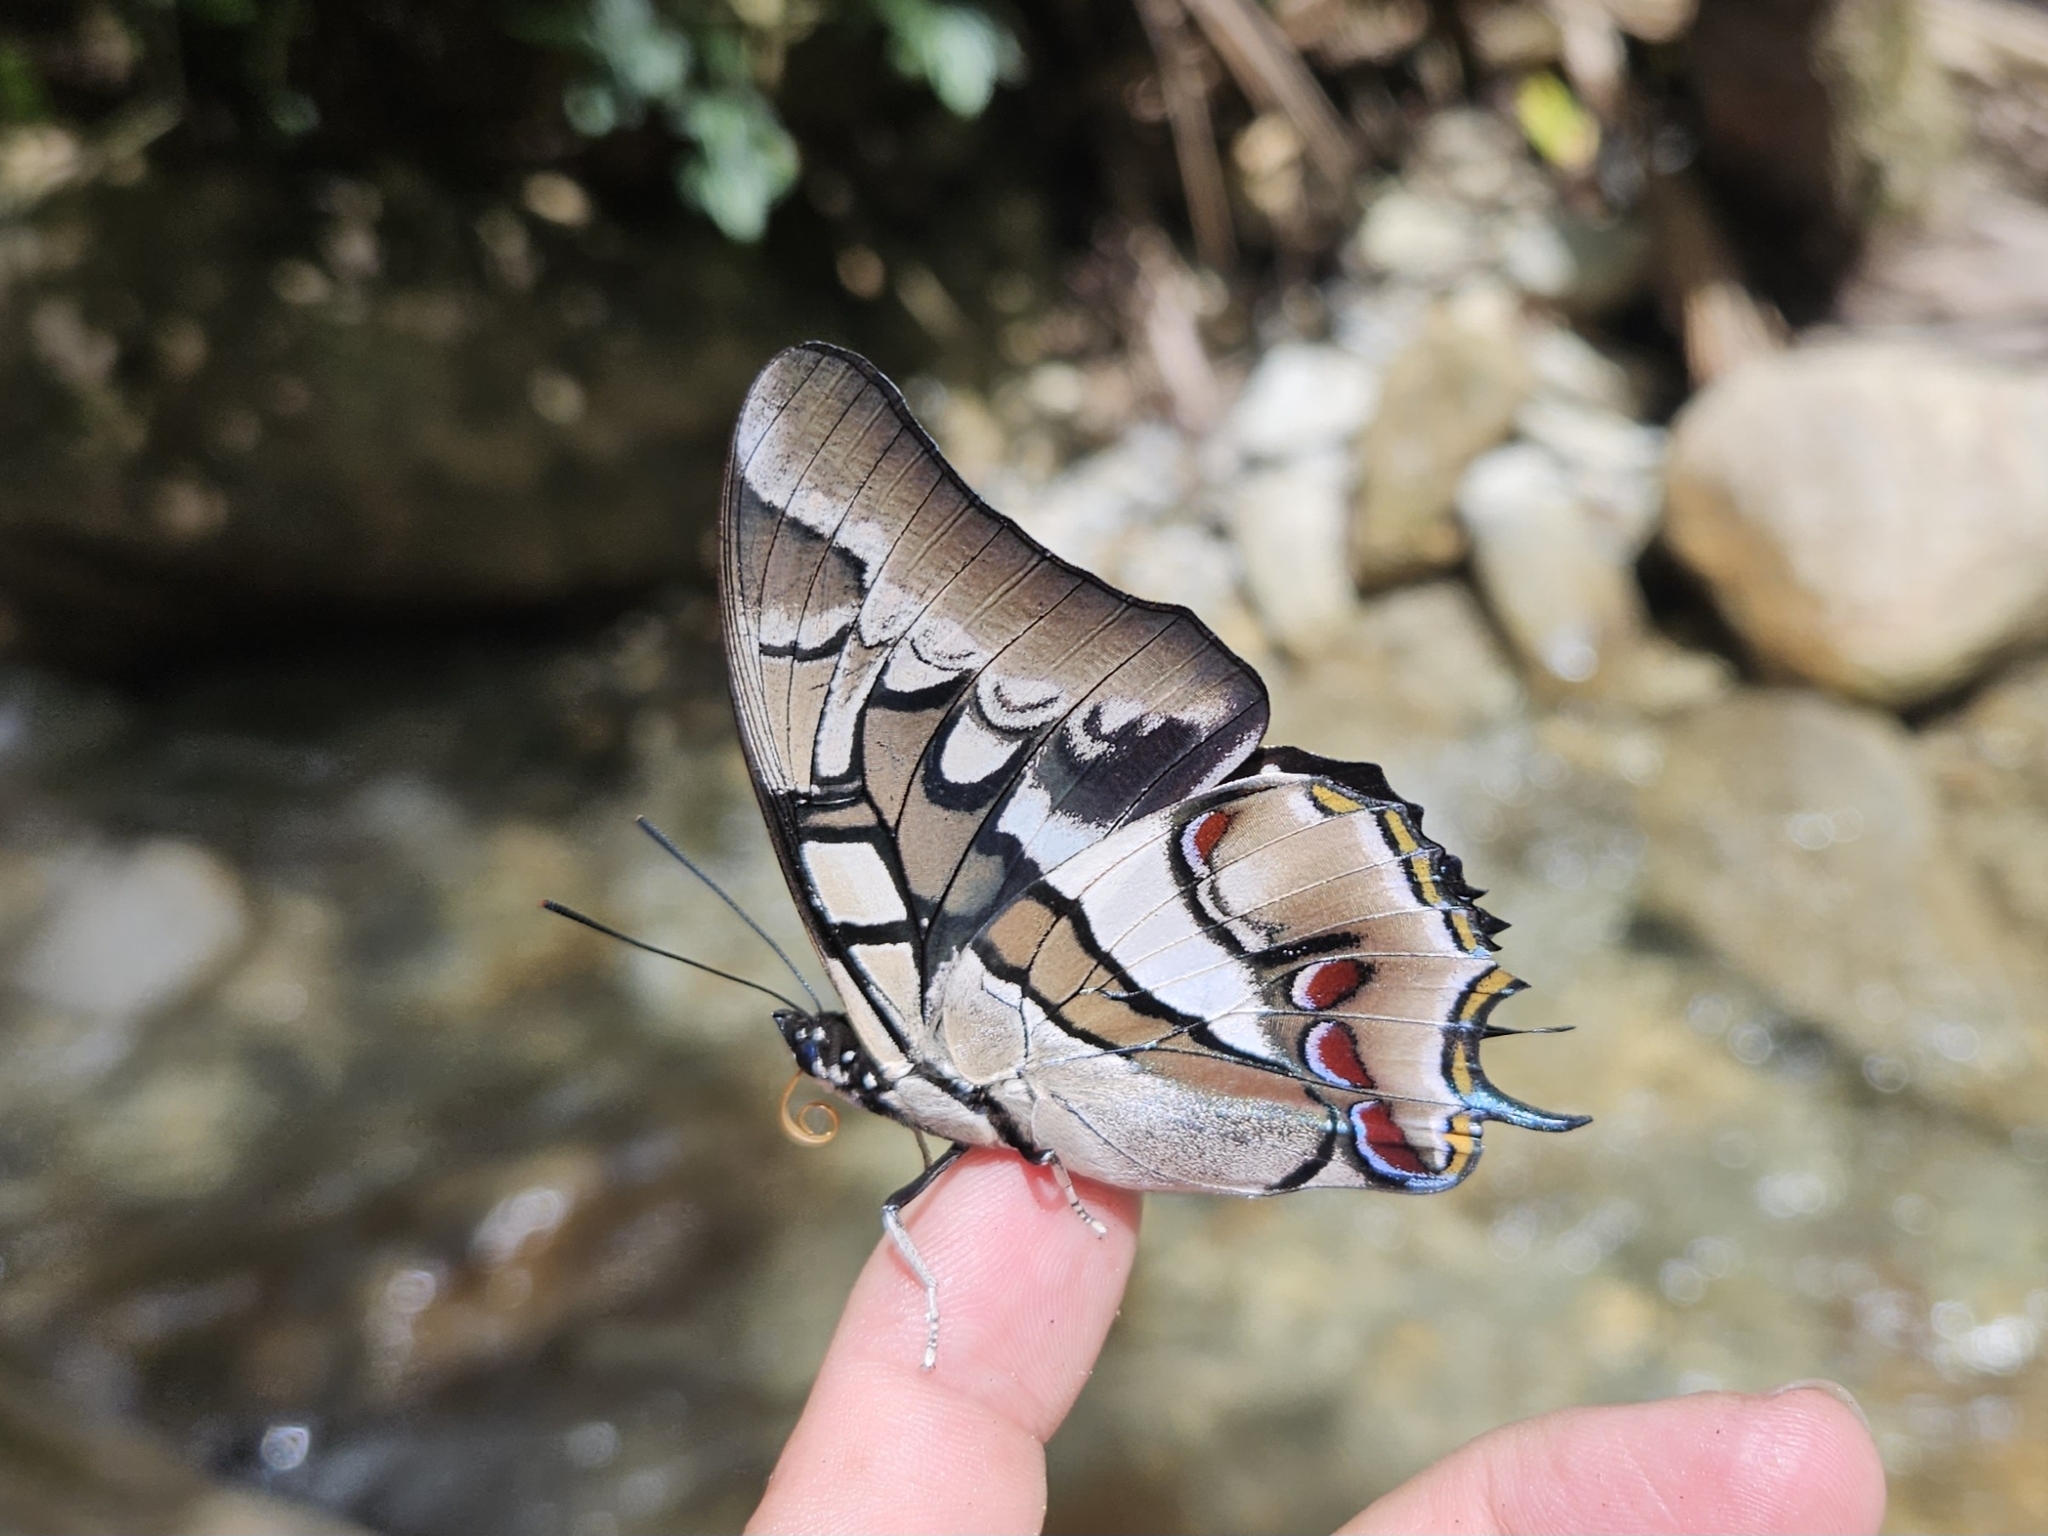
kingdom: Animalia
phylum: Arthropoda
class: Insecta
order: Lepidoptera
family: Nymphalidae
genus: Polyura
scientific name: Polyura cognatus
